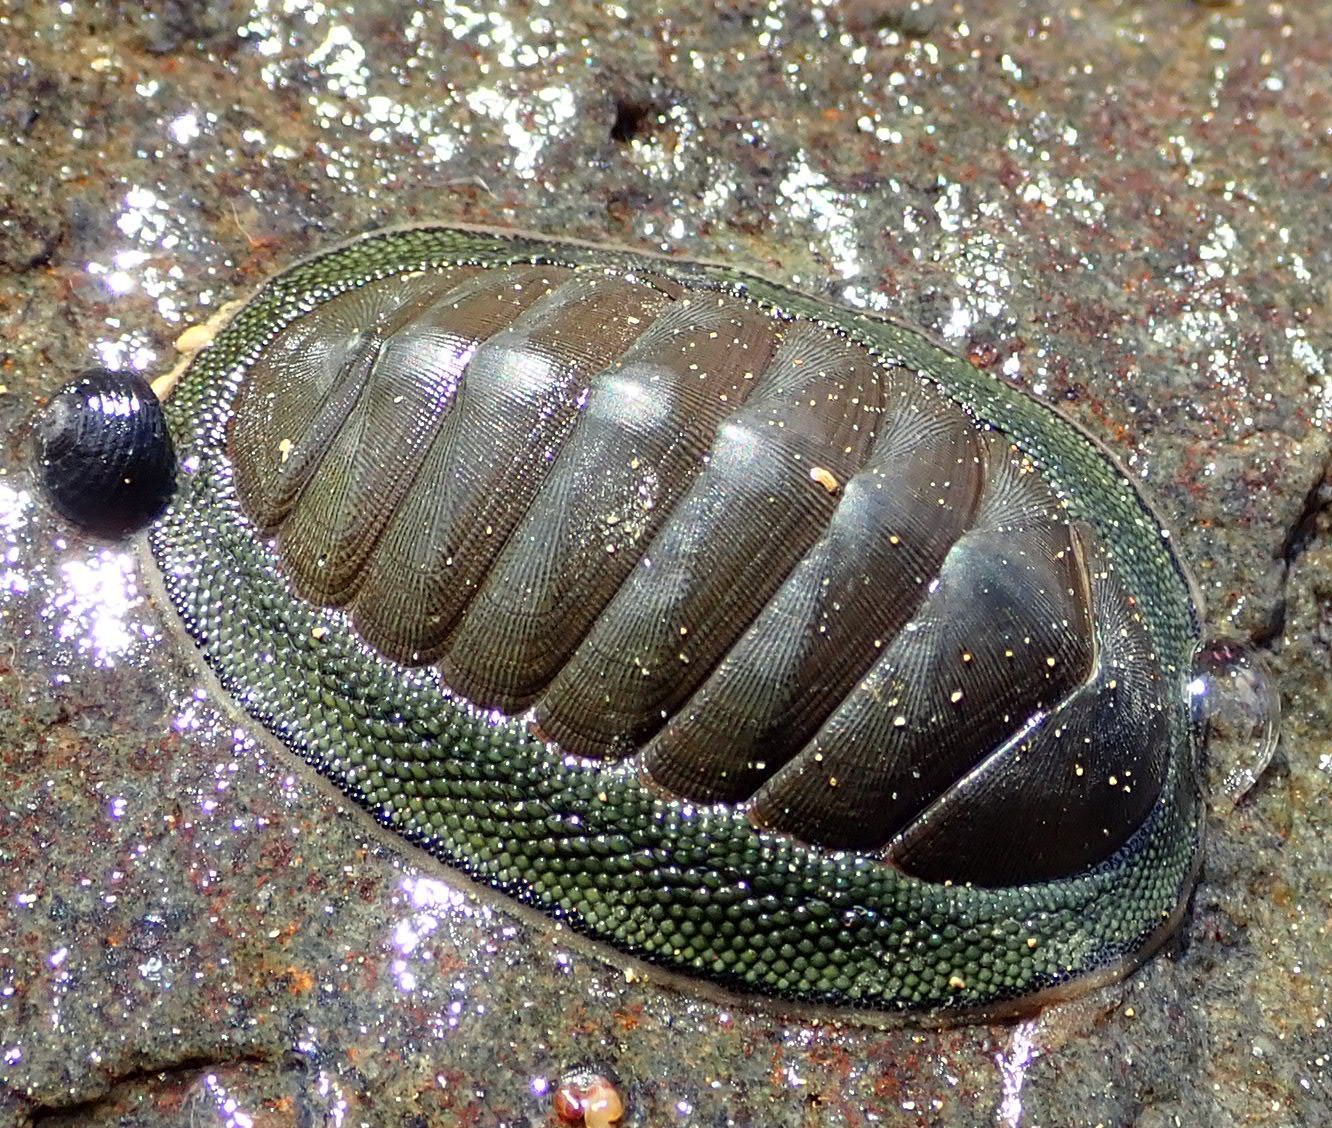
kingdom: Animalia
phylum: Mollusca
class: Polyplacophora
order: Chitonida
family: Chitonidae
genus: Chiton
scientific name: Chiton glaucus
